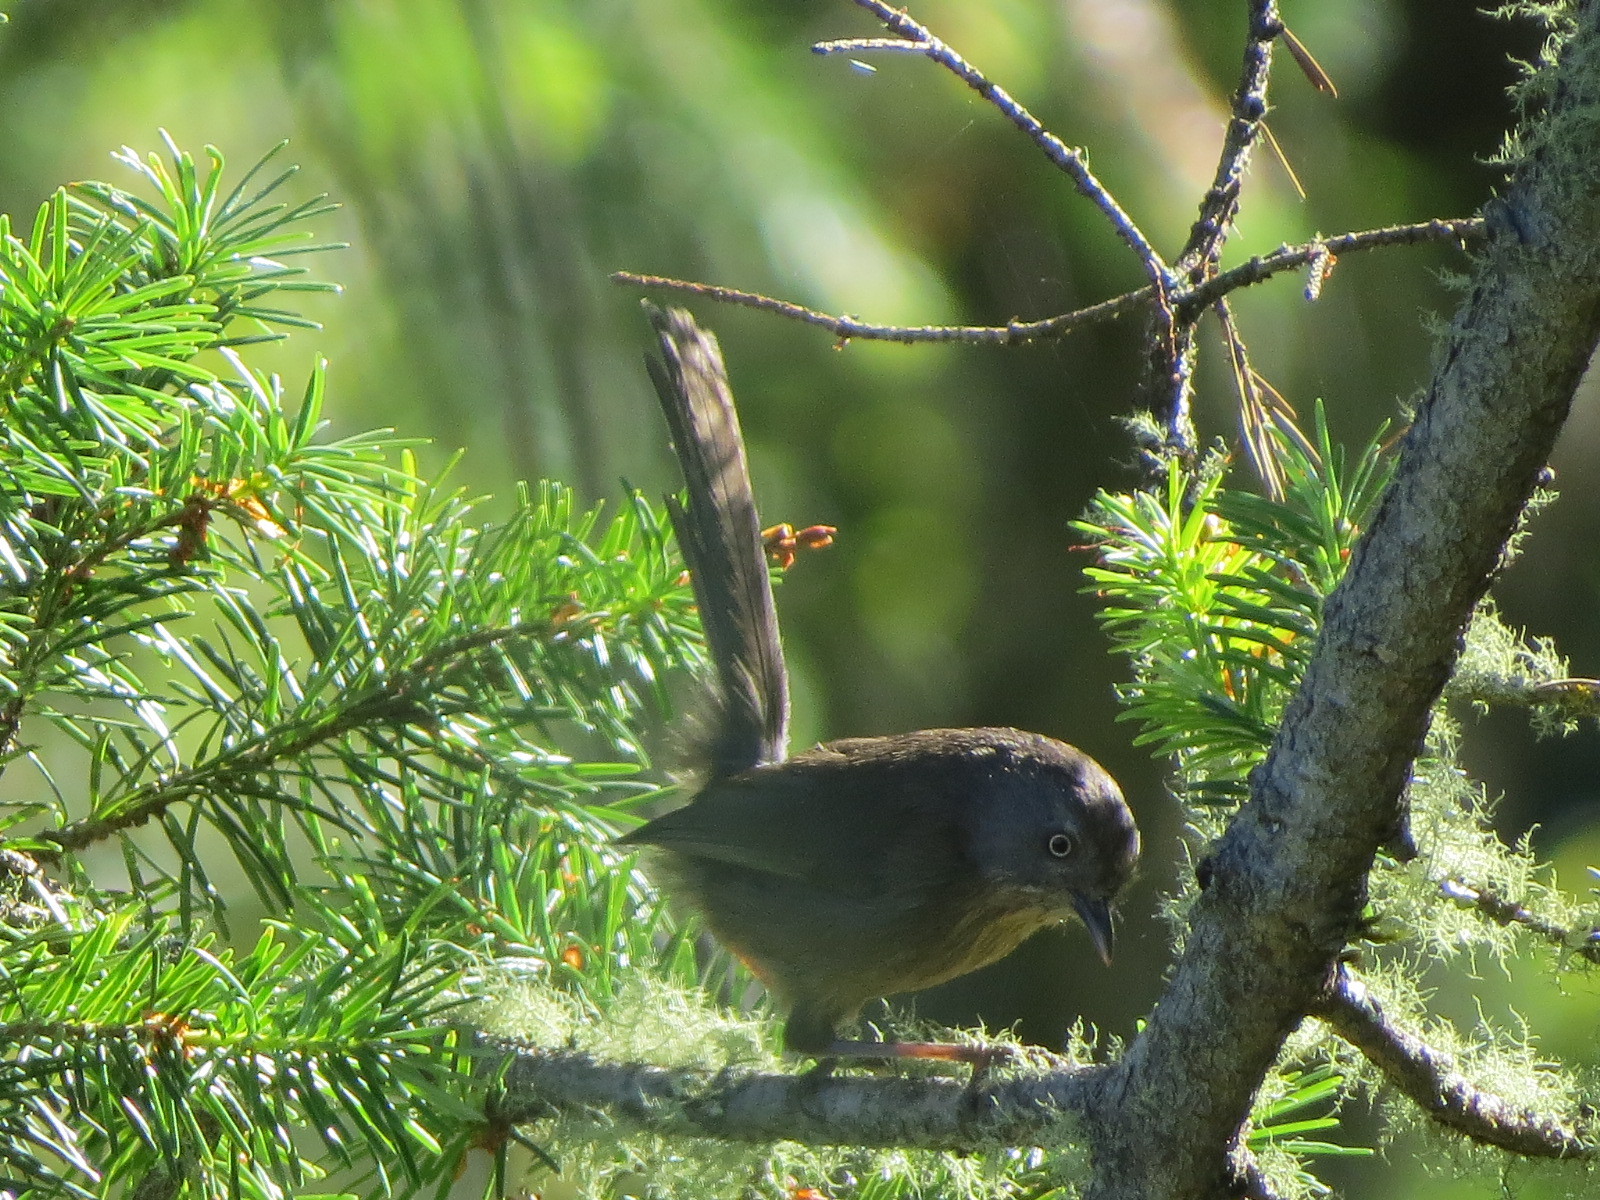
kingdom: Animalia
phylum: Chordata
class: Aves
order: Passeriformes
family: Sylviidae
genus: Chamaea
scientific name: Chamaea fasciata
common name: Wrentit
